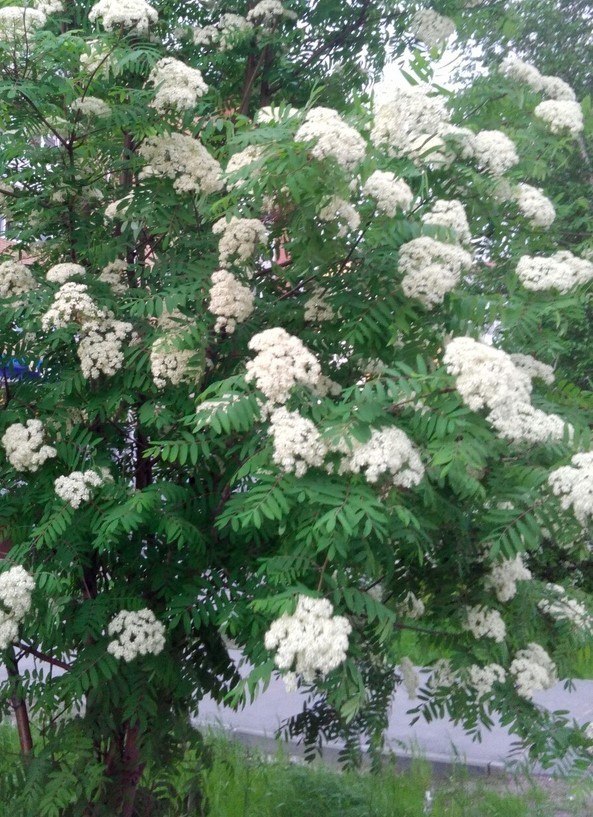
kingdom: Plantae
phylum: Tracheophyta
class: Magnoliopsida
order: Rosales
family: Rosaceae
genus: Sorbus
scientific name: Sorbus aucuparia
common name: Rowan
